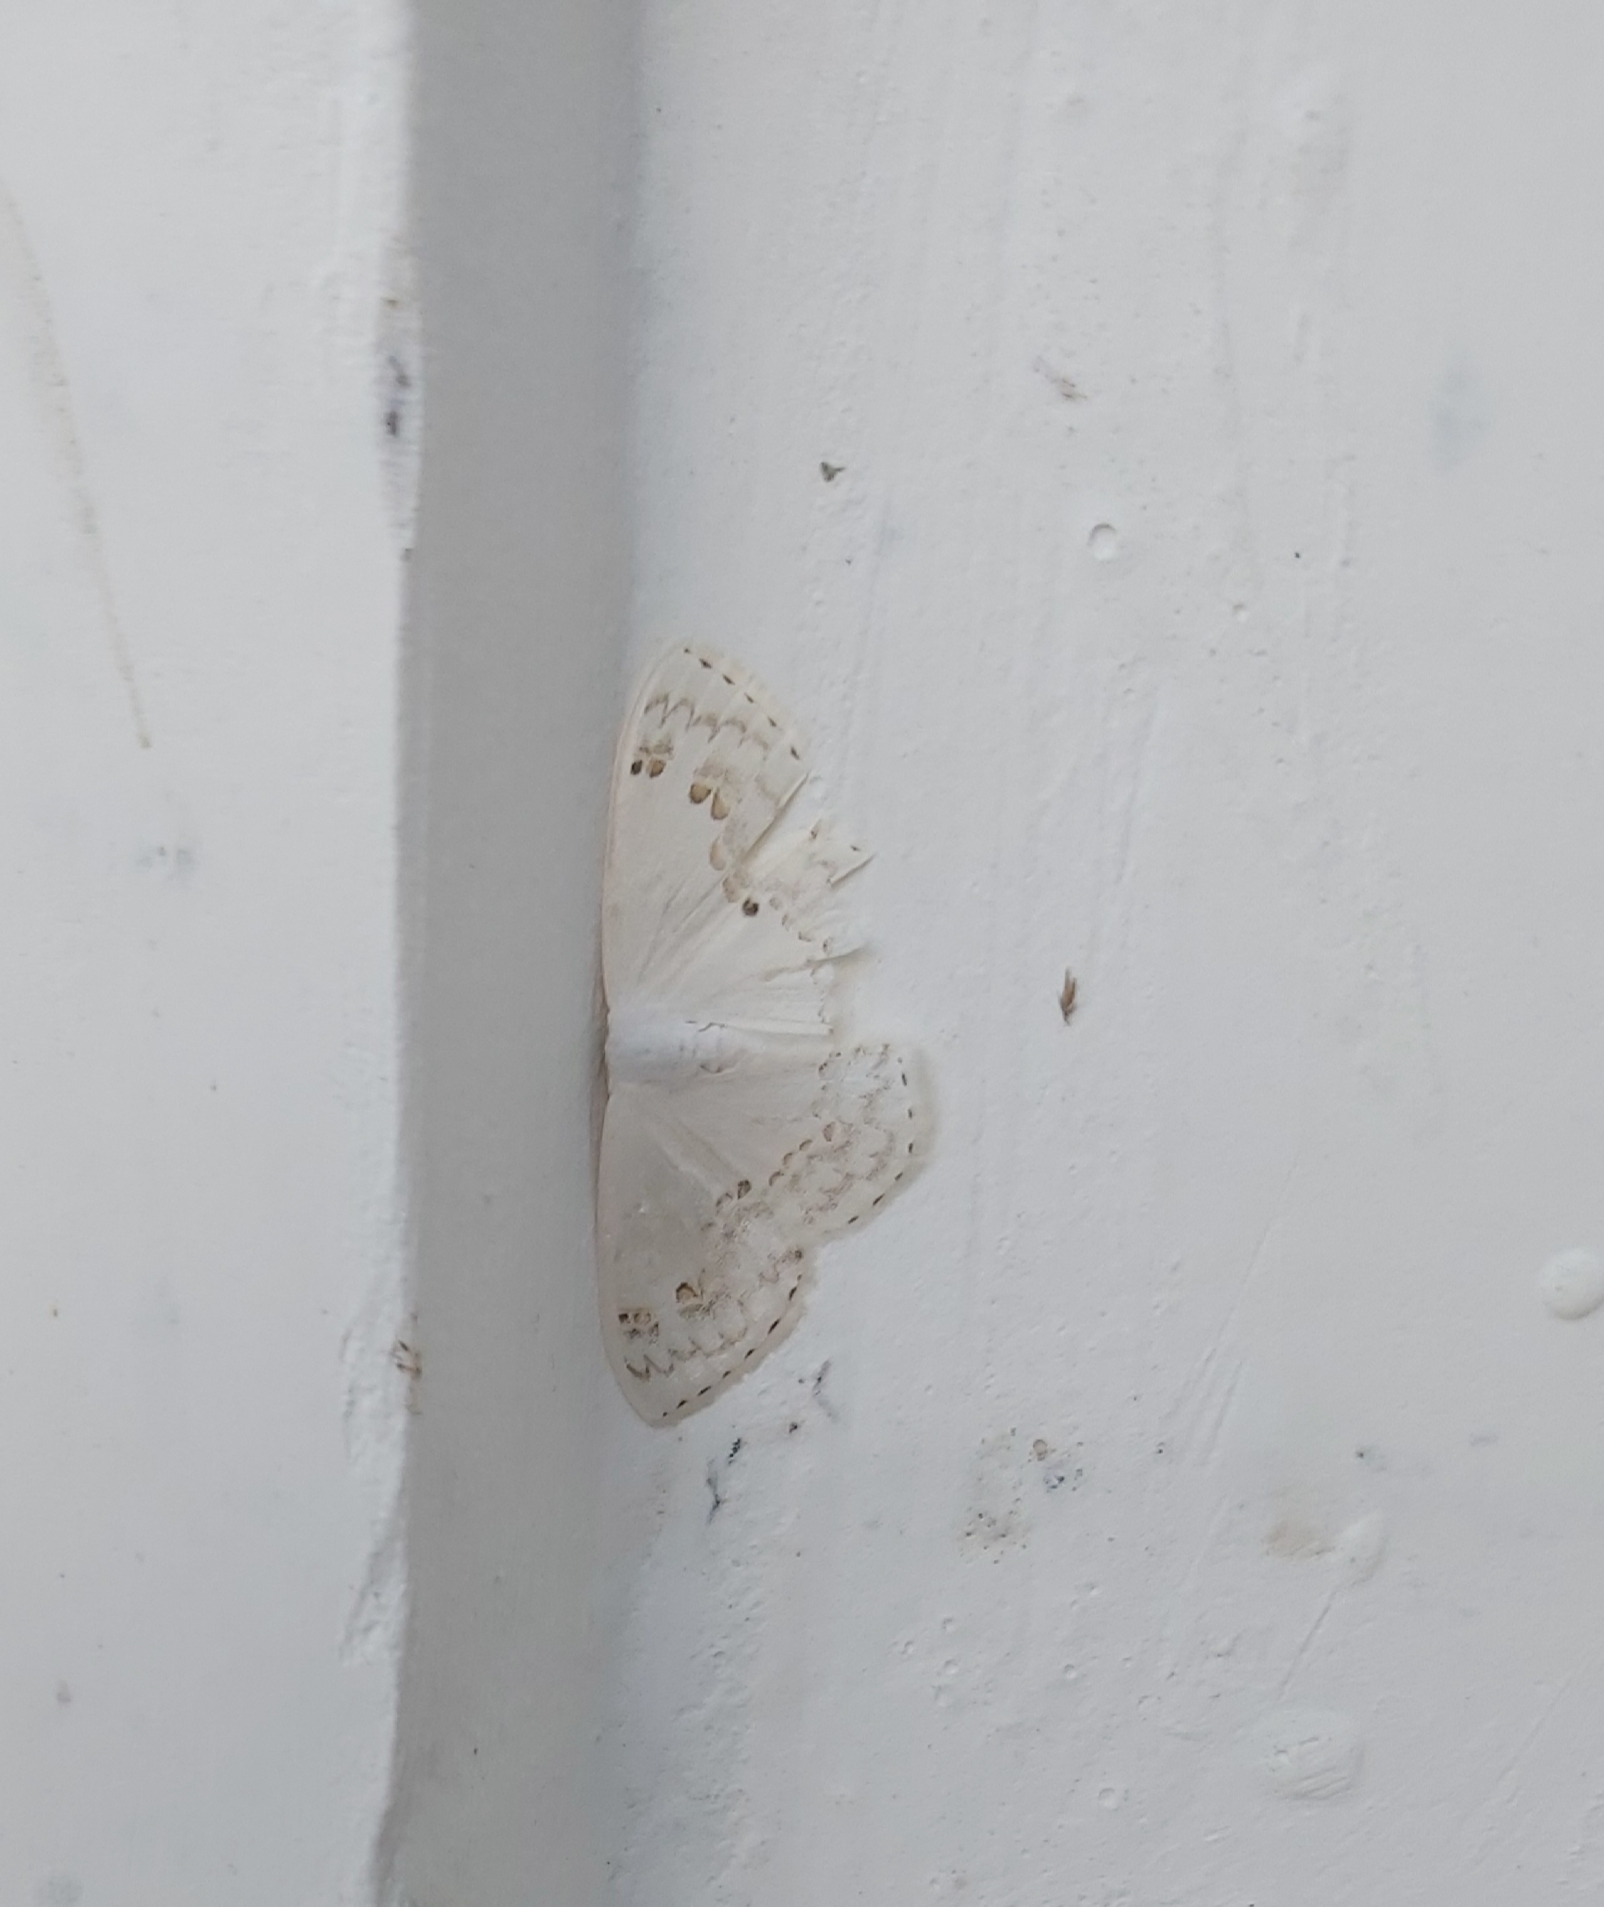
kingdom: Animalia
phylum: Arthropoda
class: Insecta
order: Lepidoptera
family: Drepanidae
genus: Teldenia
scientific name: Teldenia specca
